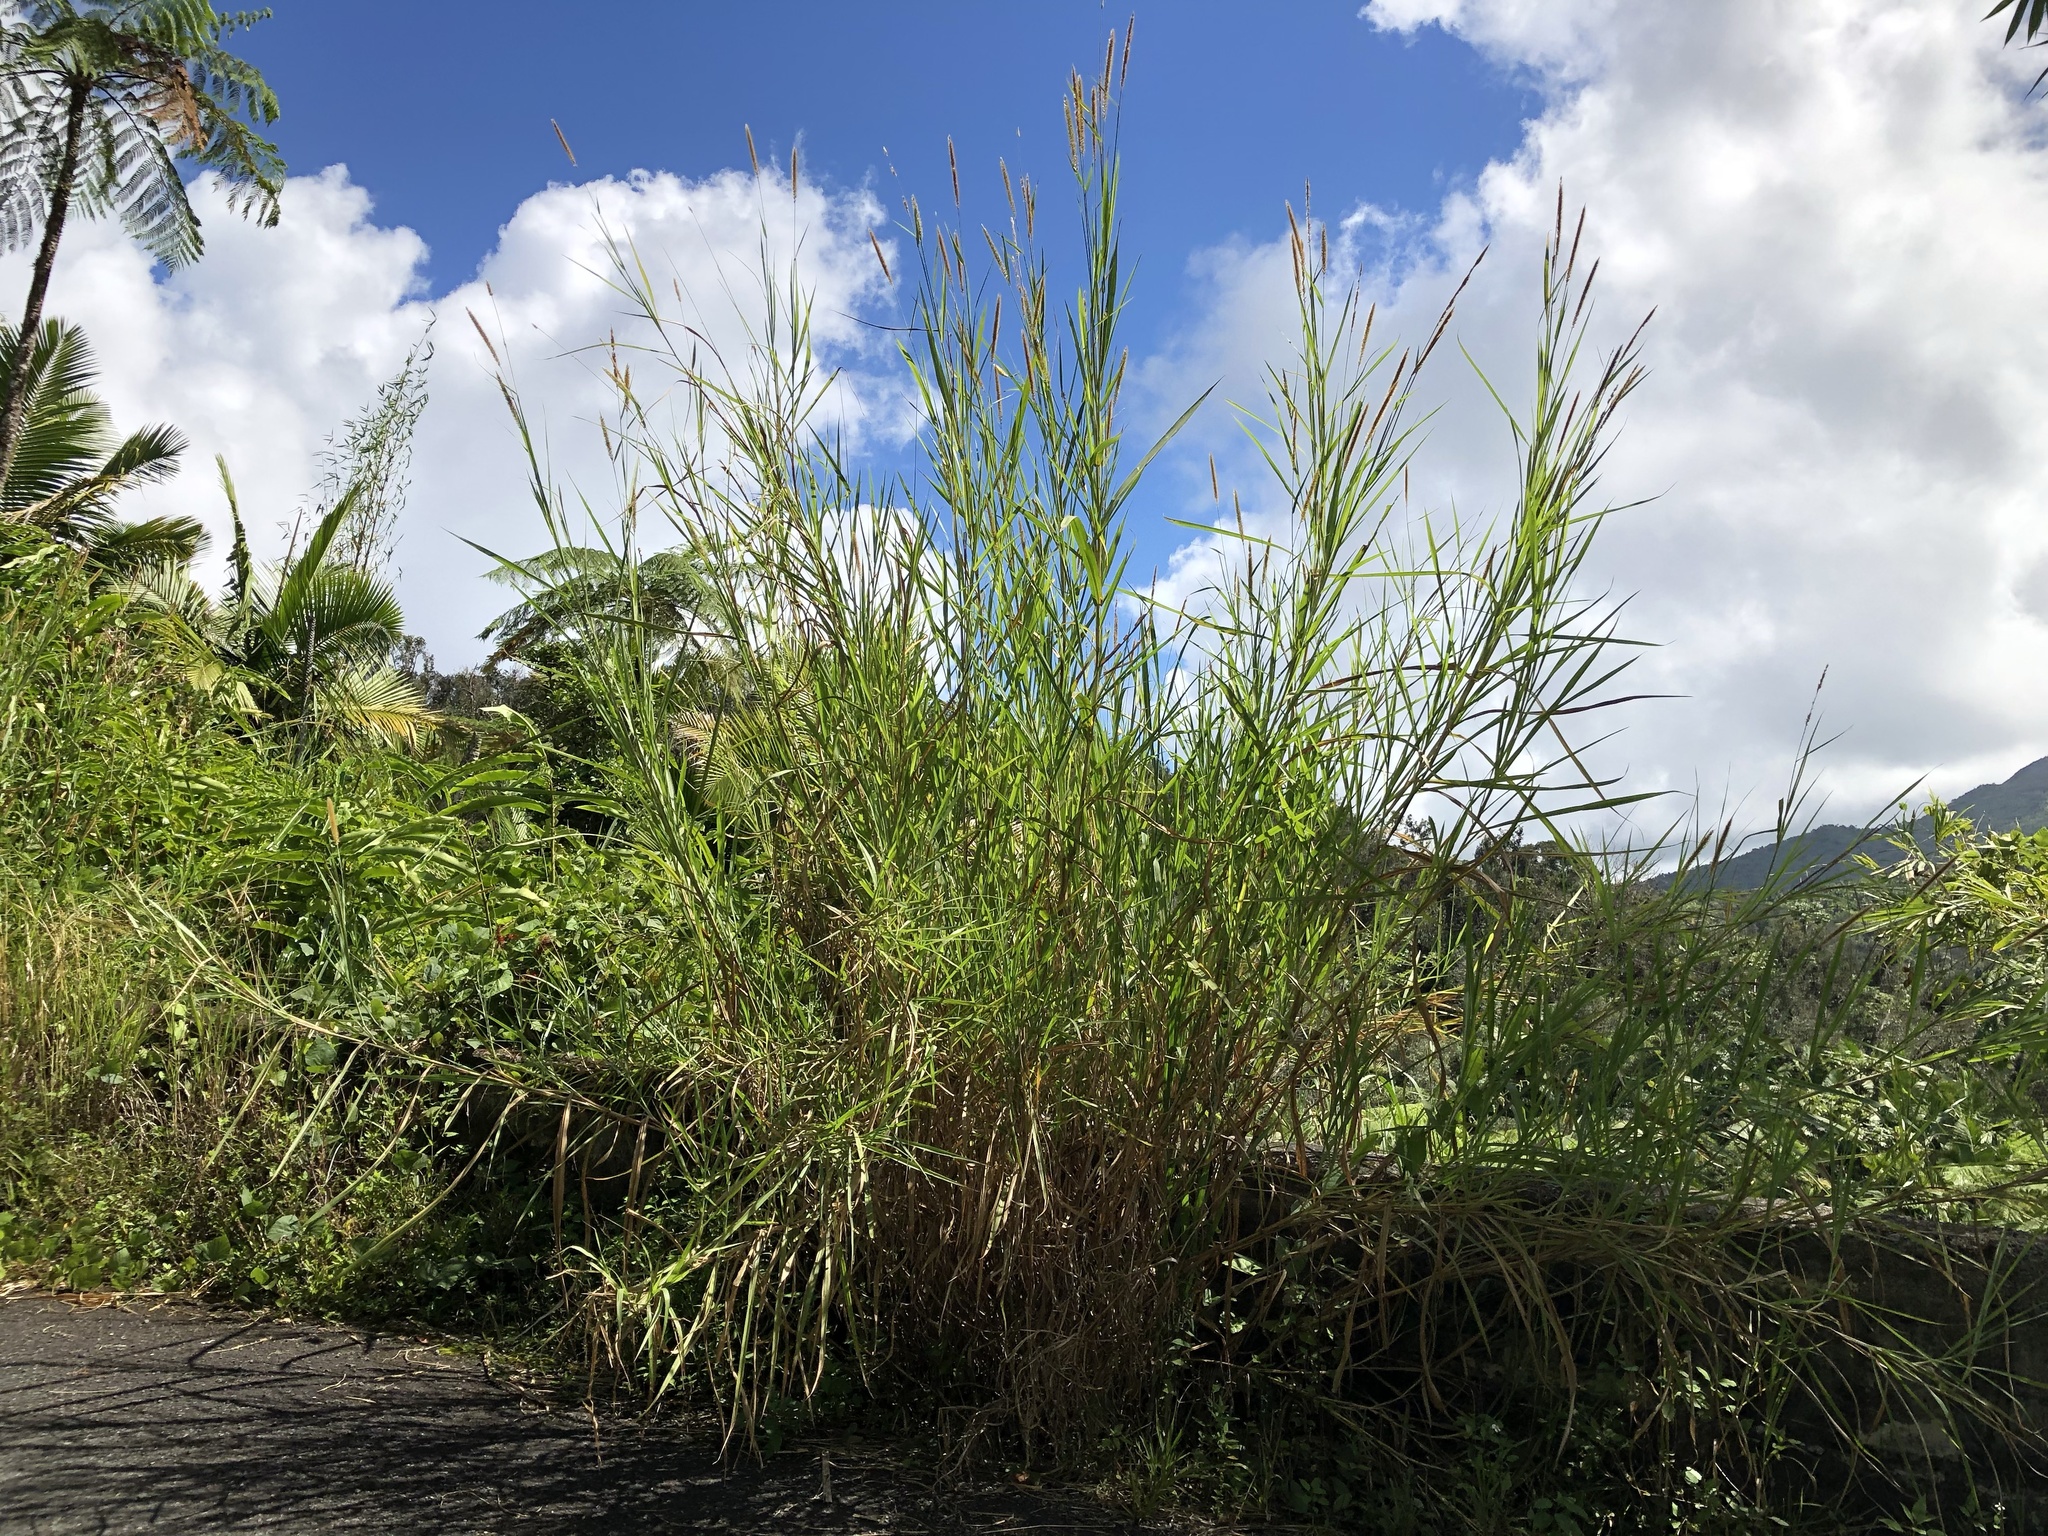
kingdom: Plantae
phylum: Tracheophyta
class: Liliopsida
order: Poales
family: Poaceae
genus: Cenchrus
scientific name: Cenchrus purpureus
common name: Elephant grass
